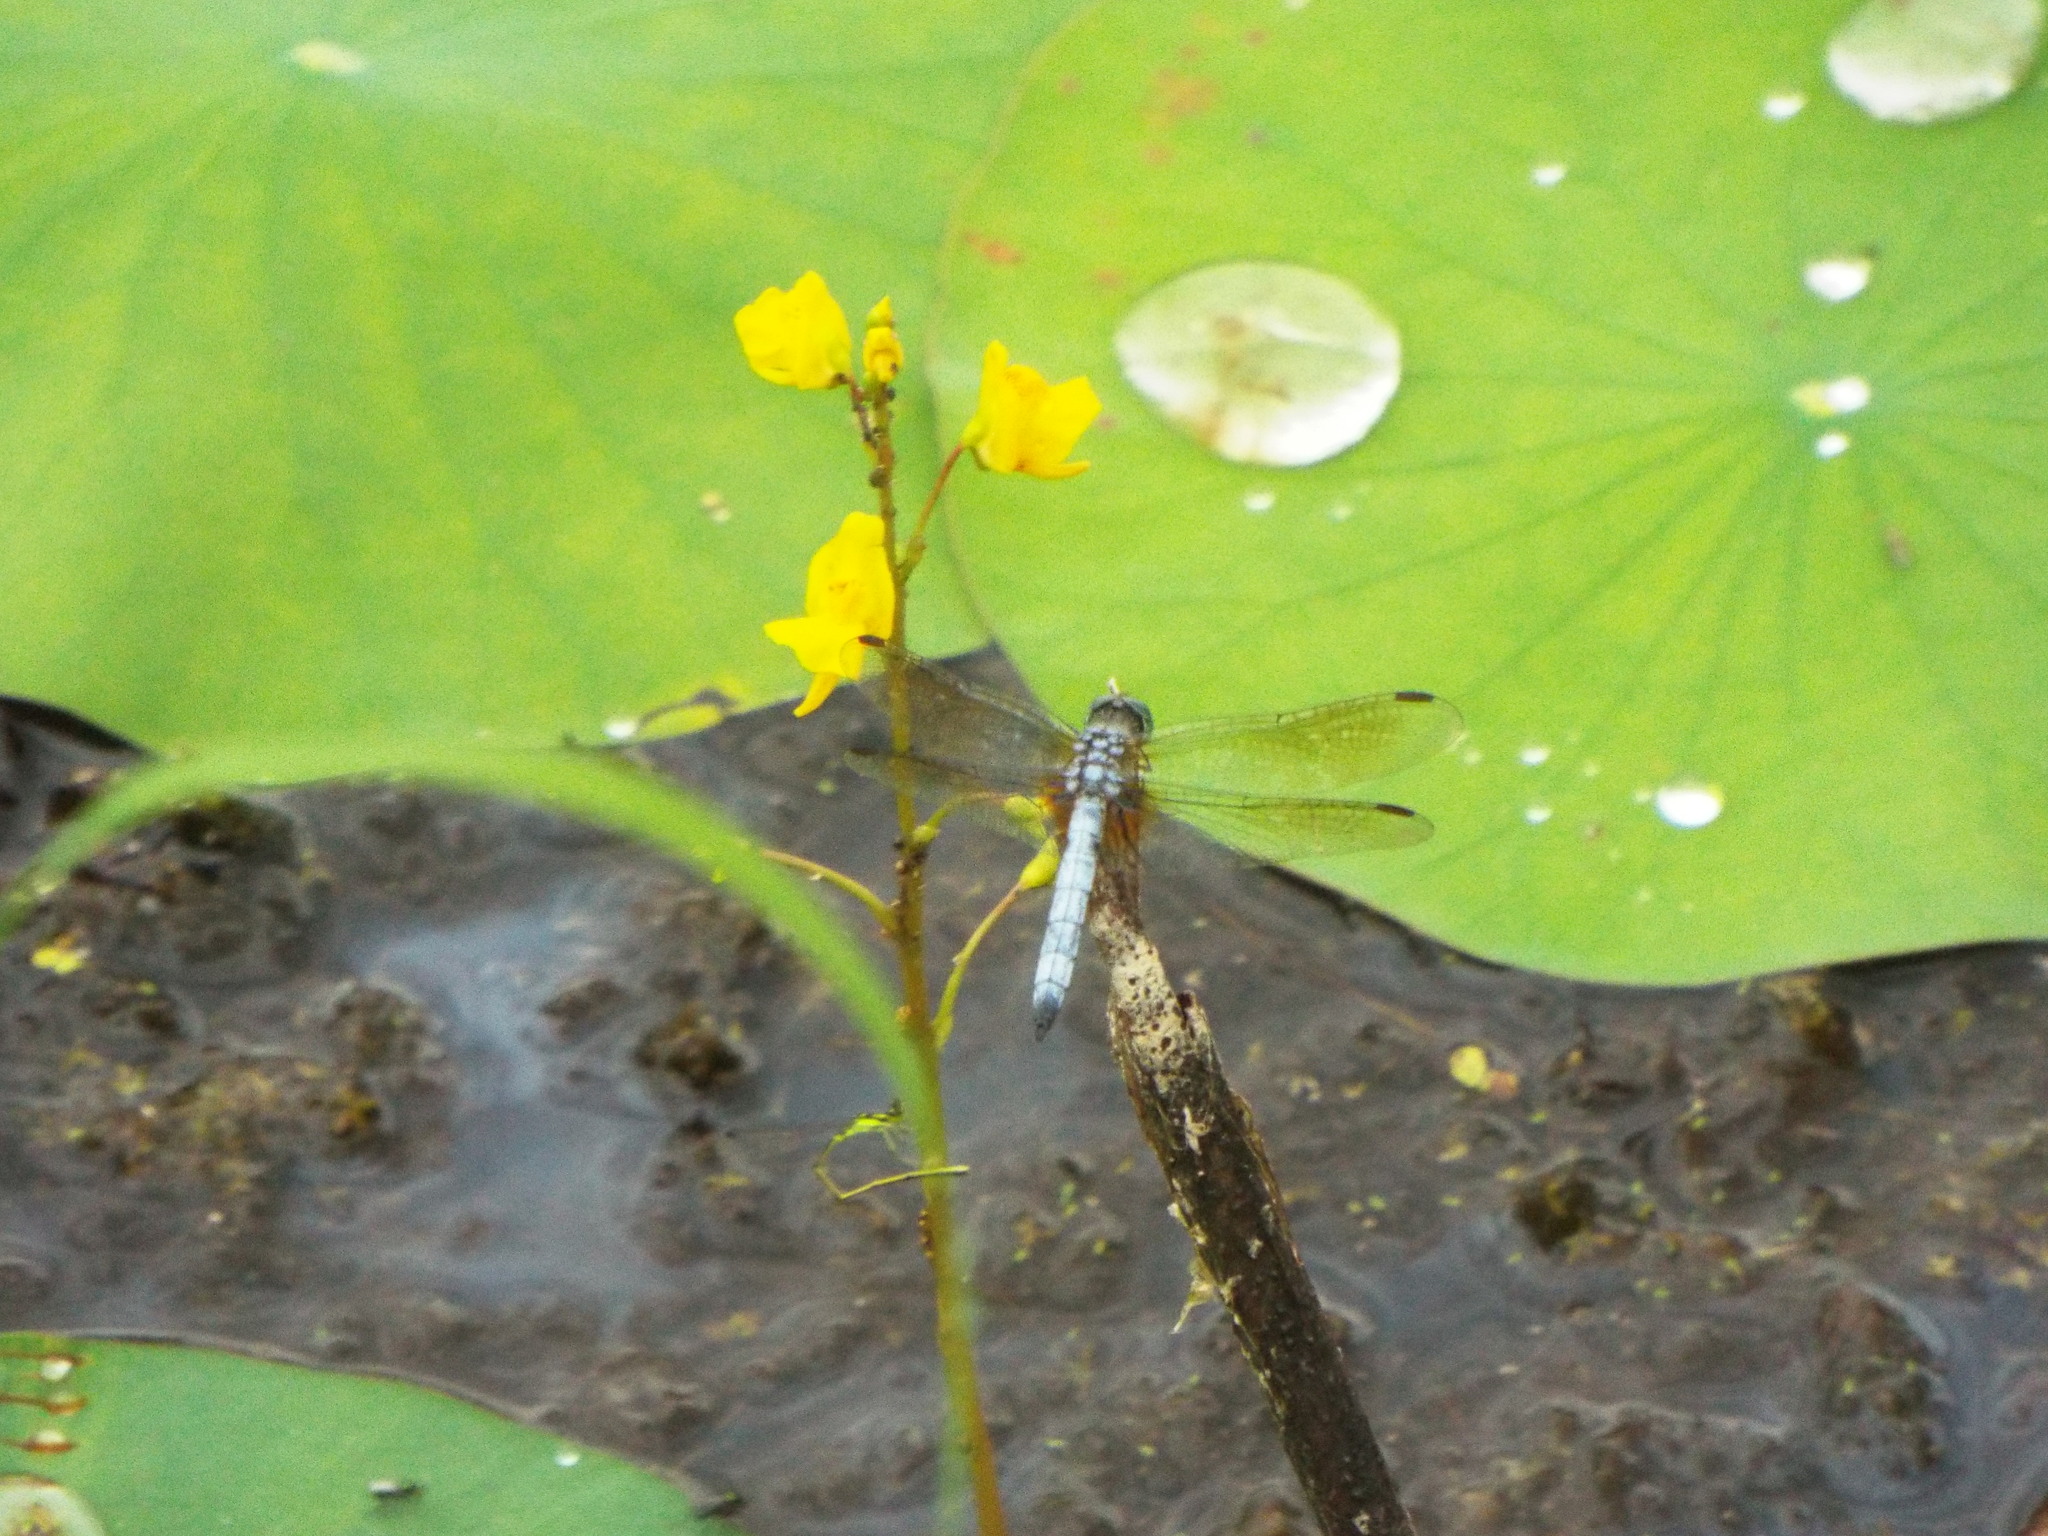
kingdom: Animalia
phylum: Arthropoda
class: Insecta
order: Odonata
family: Libellulidae
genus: Pachydiplax
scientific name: Pachydiplax longipennis
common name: Blue dasher
